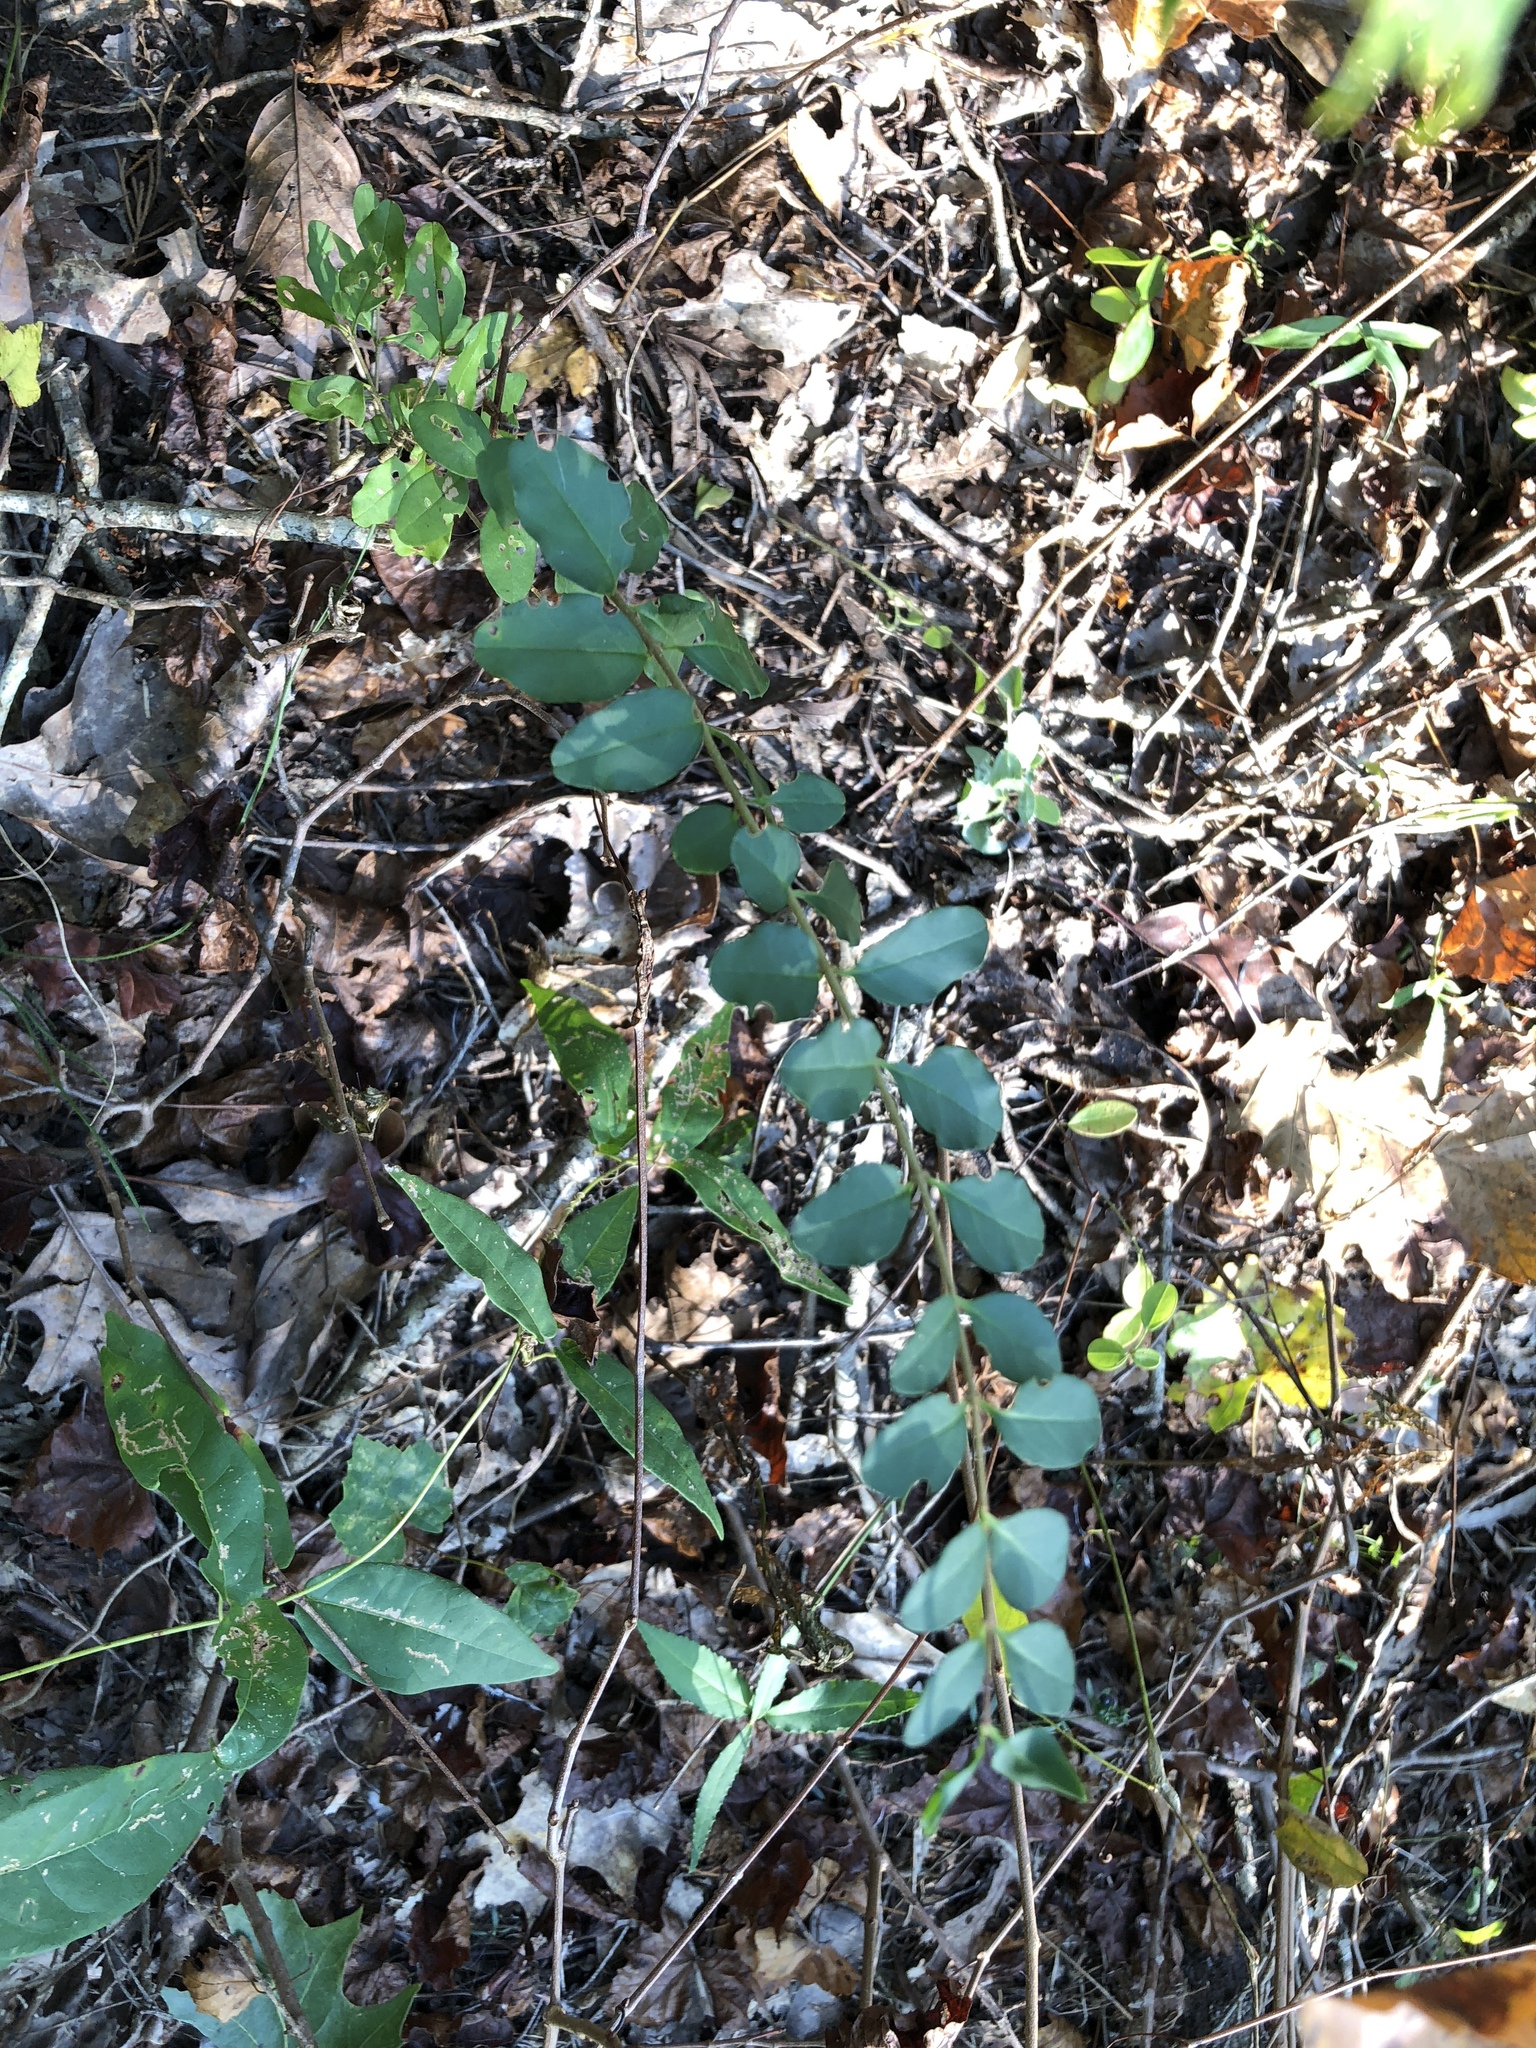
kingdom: Plantae
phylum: Tracheophyta
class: Magnoliopsida
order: Lamiales
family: Oleaceae
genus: Ligustrum
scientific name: Ligustrum sinense
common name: Chinese privet
